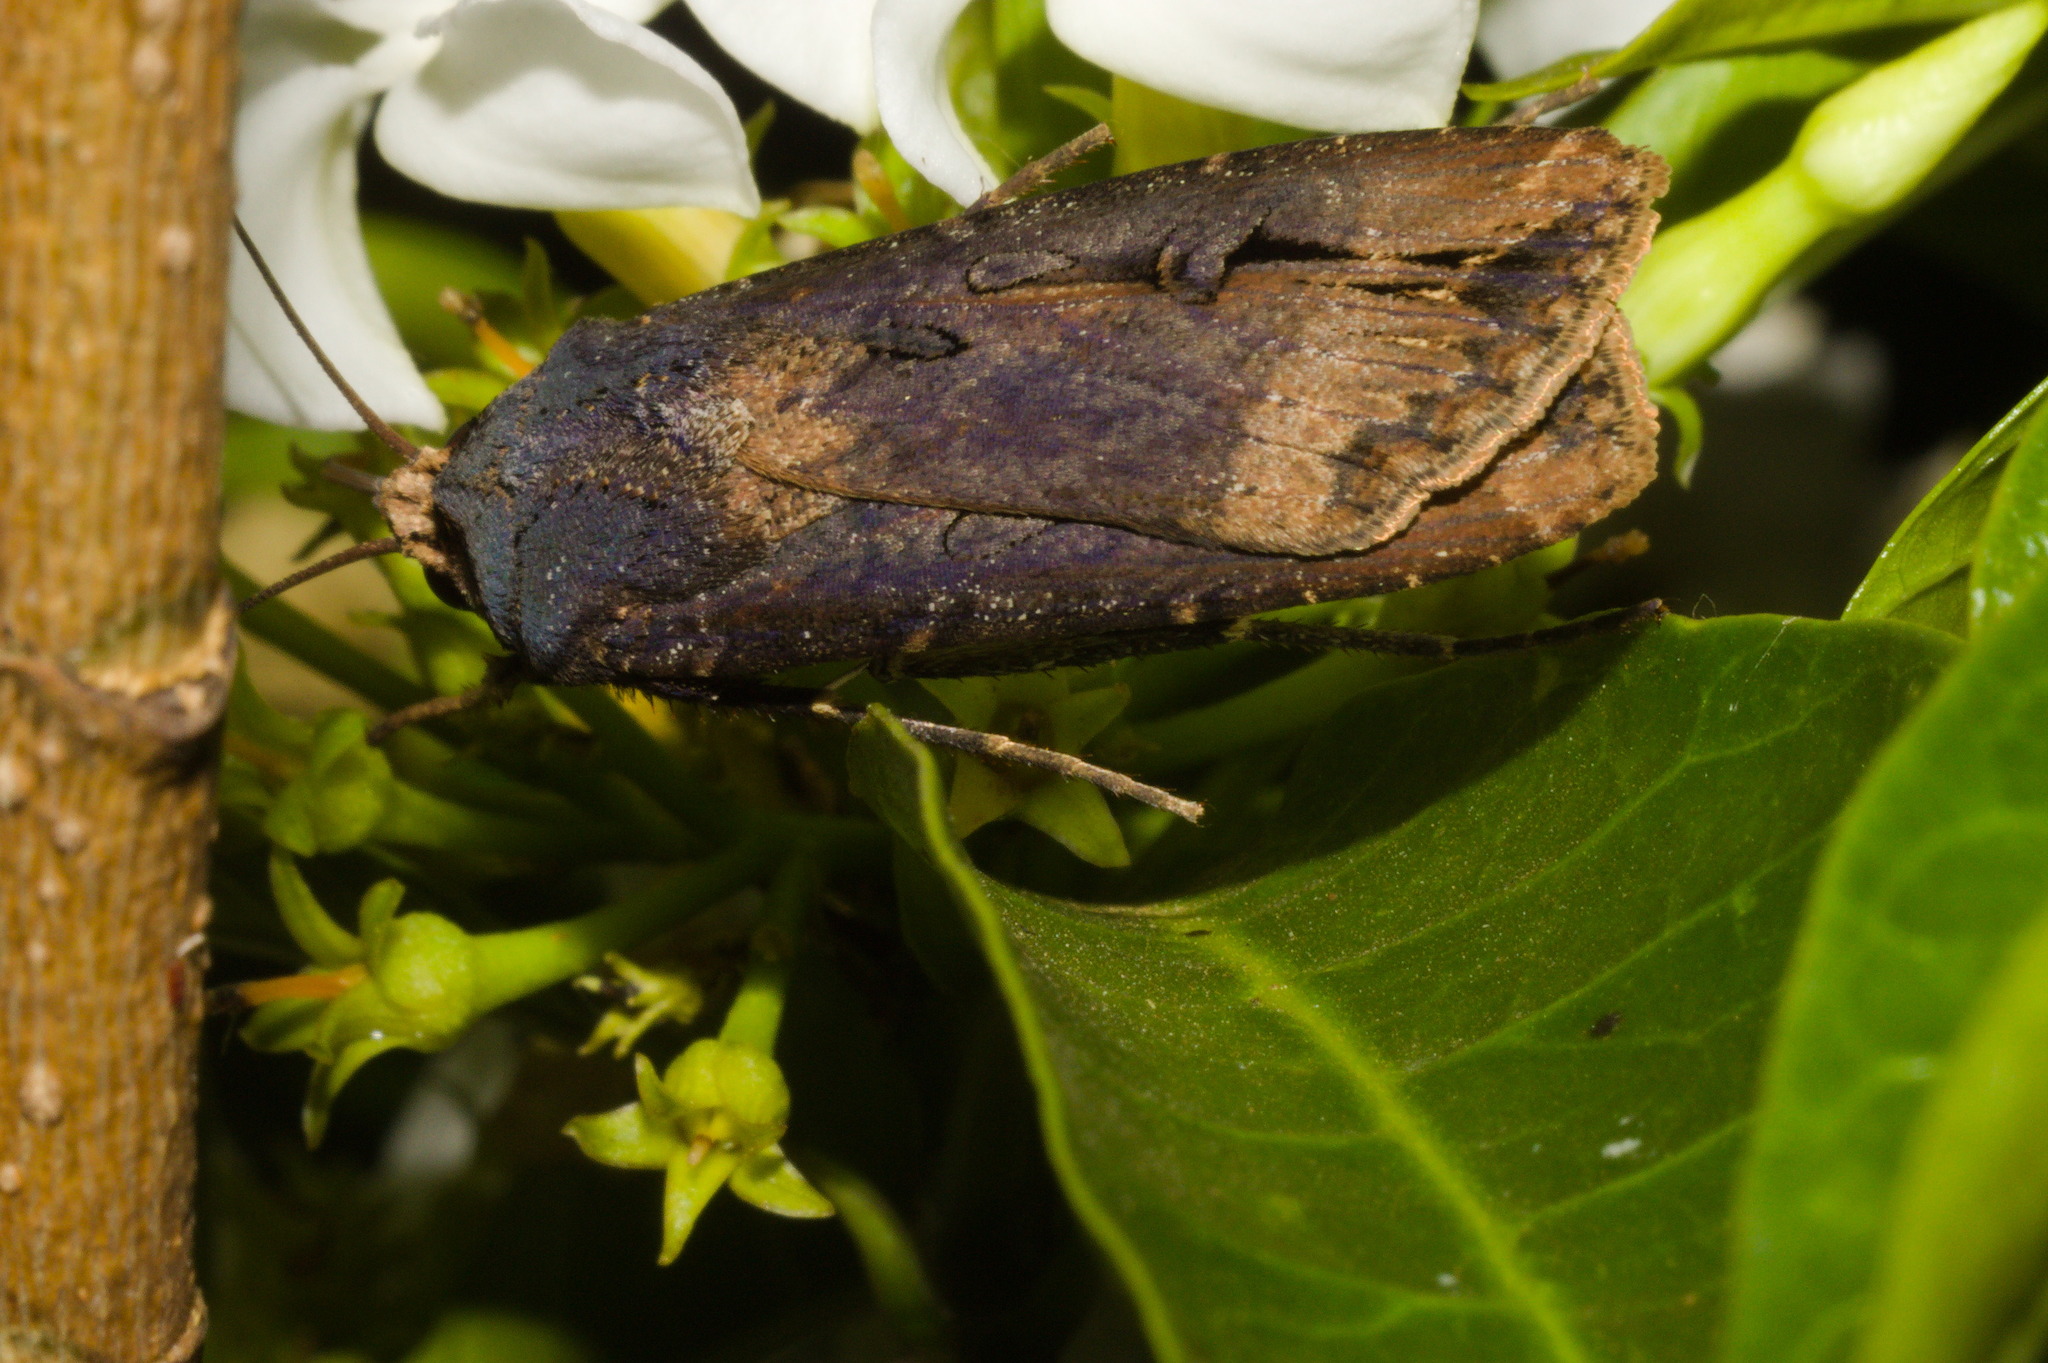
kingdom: Animalia
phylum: Arthropoda
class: Insecta
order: Lepidoptera
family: Noctuidae
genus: Agrotis
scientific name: Agrotis ipsilon
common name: Dark sword-grass
